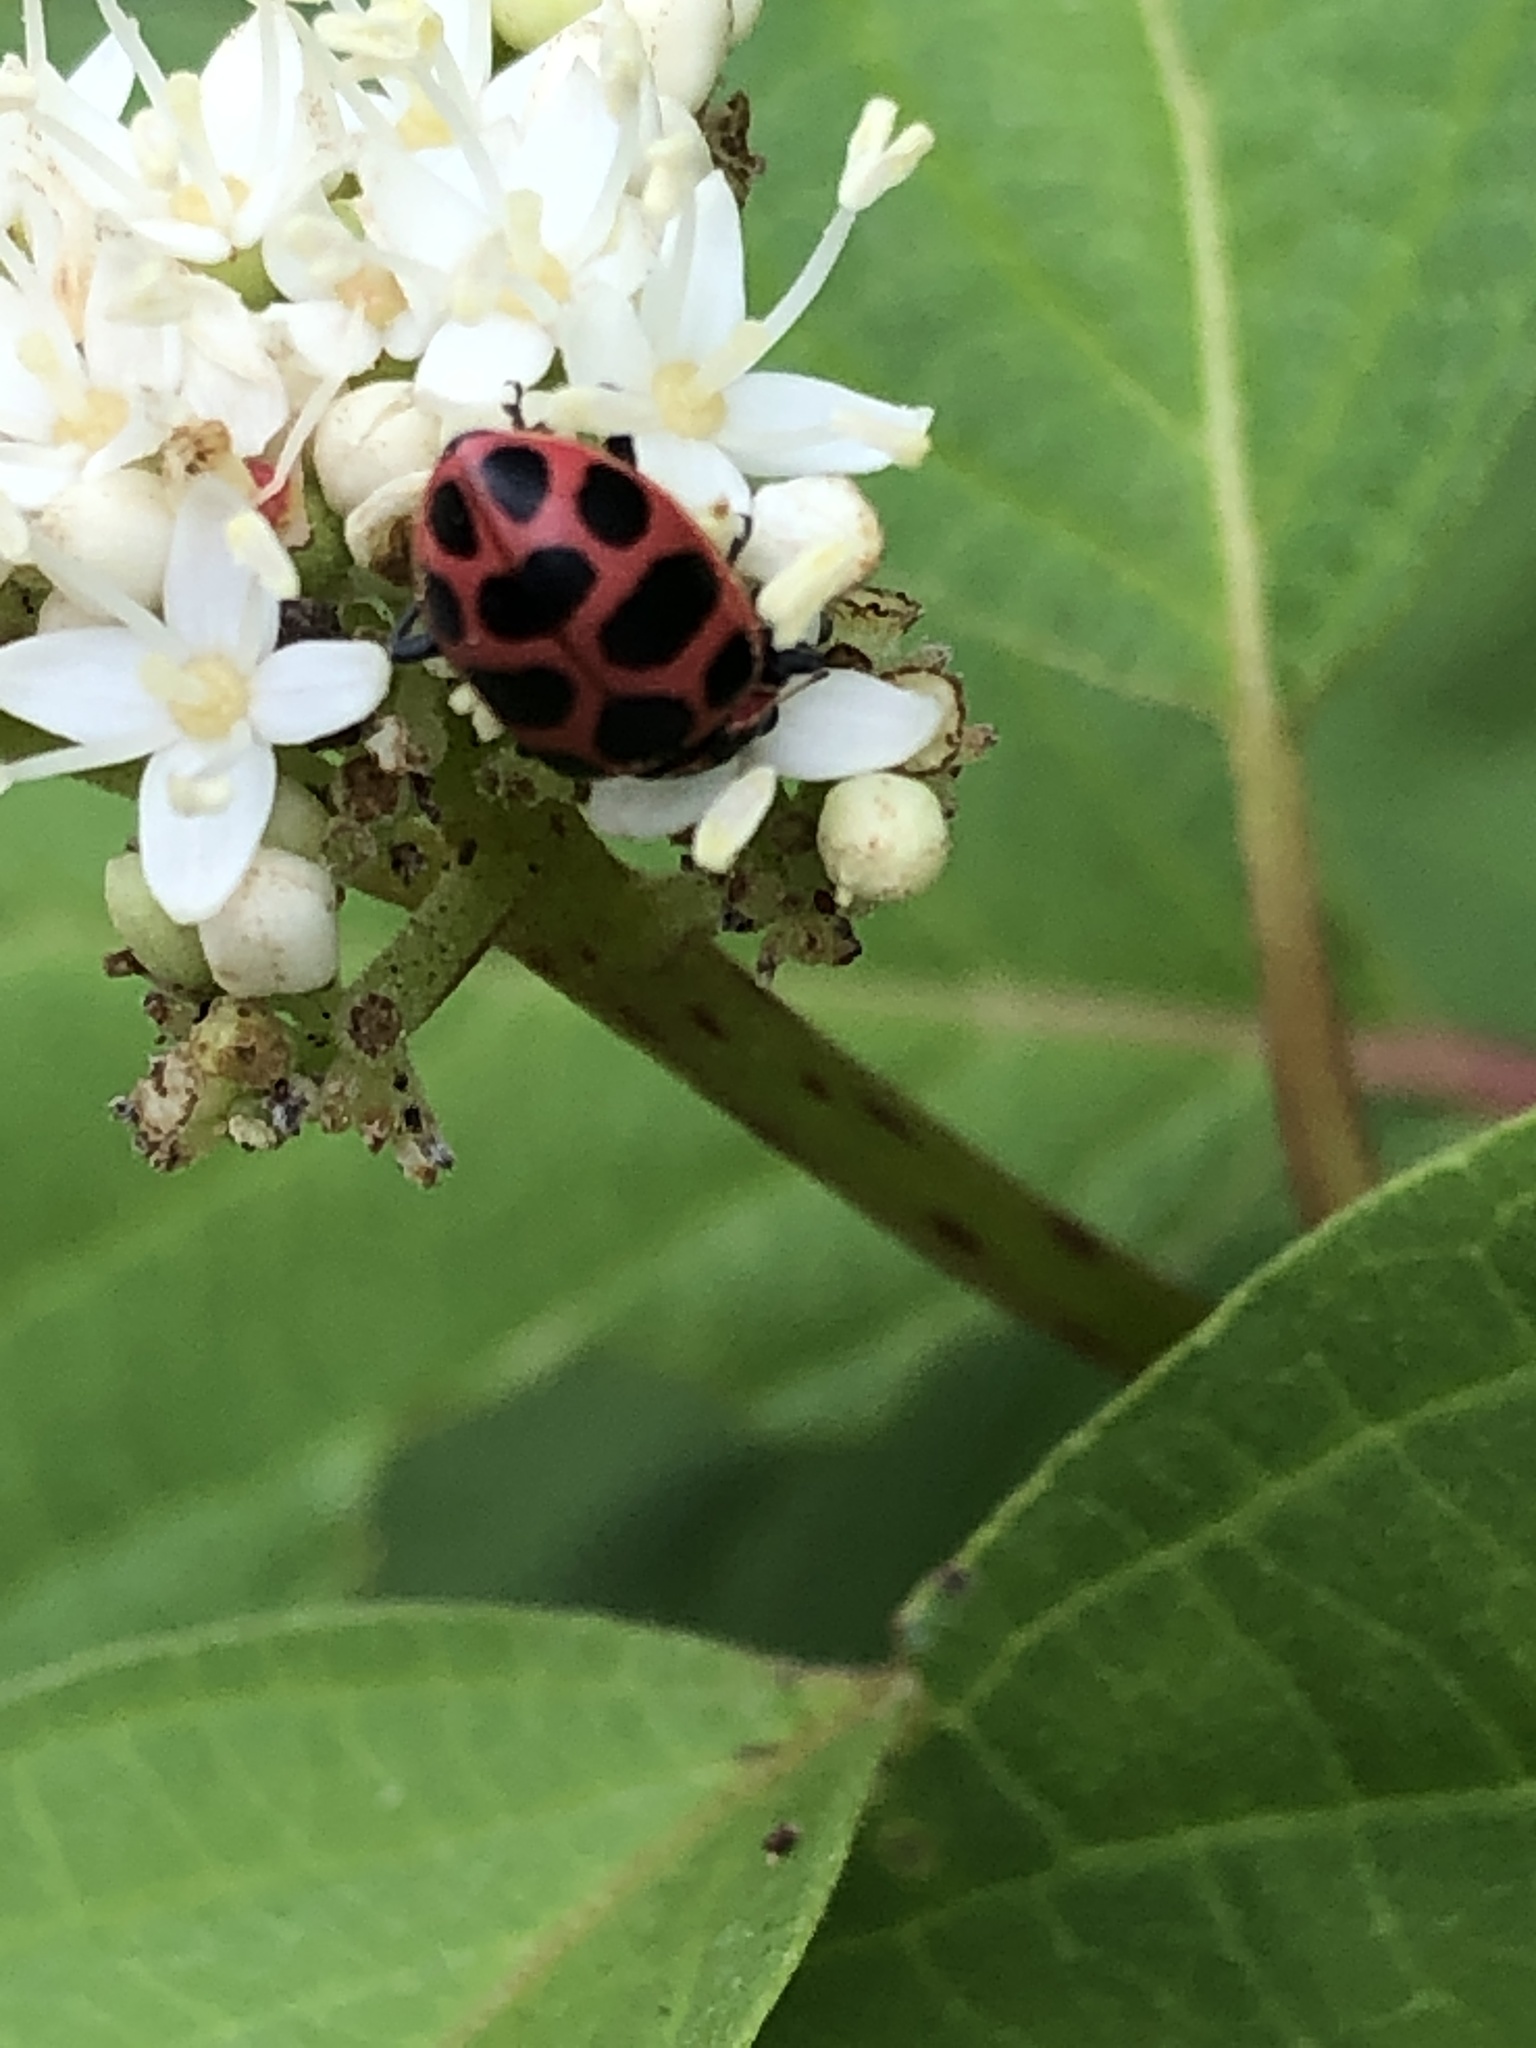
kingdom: Animalia
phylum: Arthropoda
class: Insecta
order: Coleoptera
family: Coccinellidae
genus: Coleomegilla
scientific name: Coleomegilla maculata
